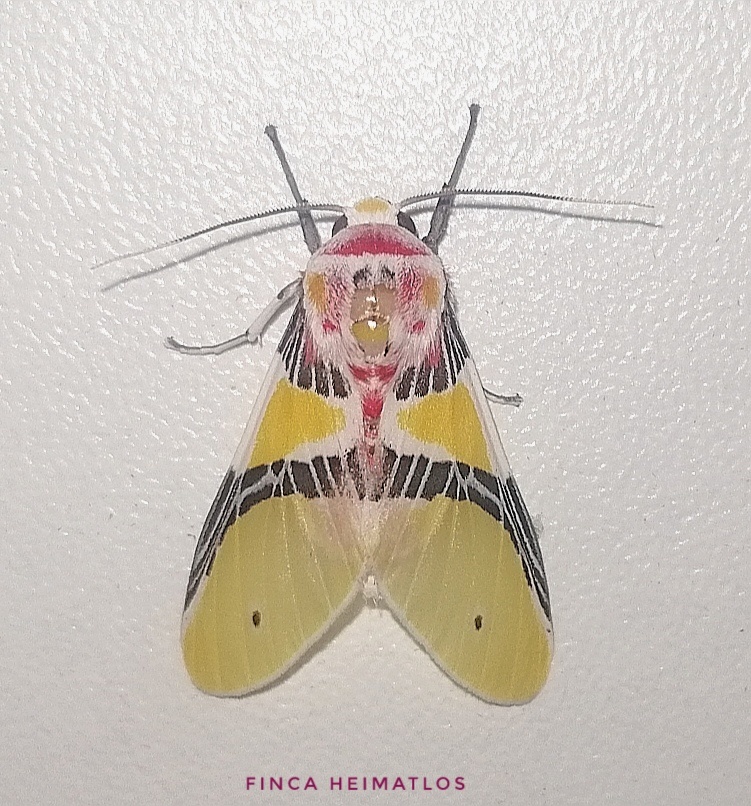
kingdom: Animalia
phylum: Arthropoda
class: Insecta
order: Lepidoptera
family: Erebidae
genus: Idalus
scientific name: Idalus monostidza
